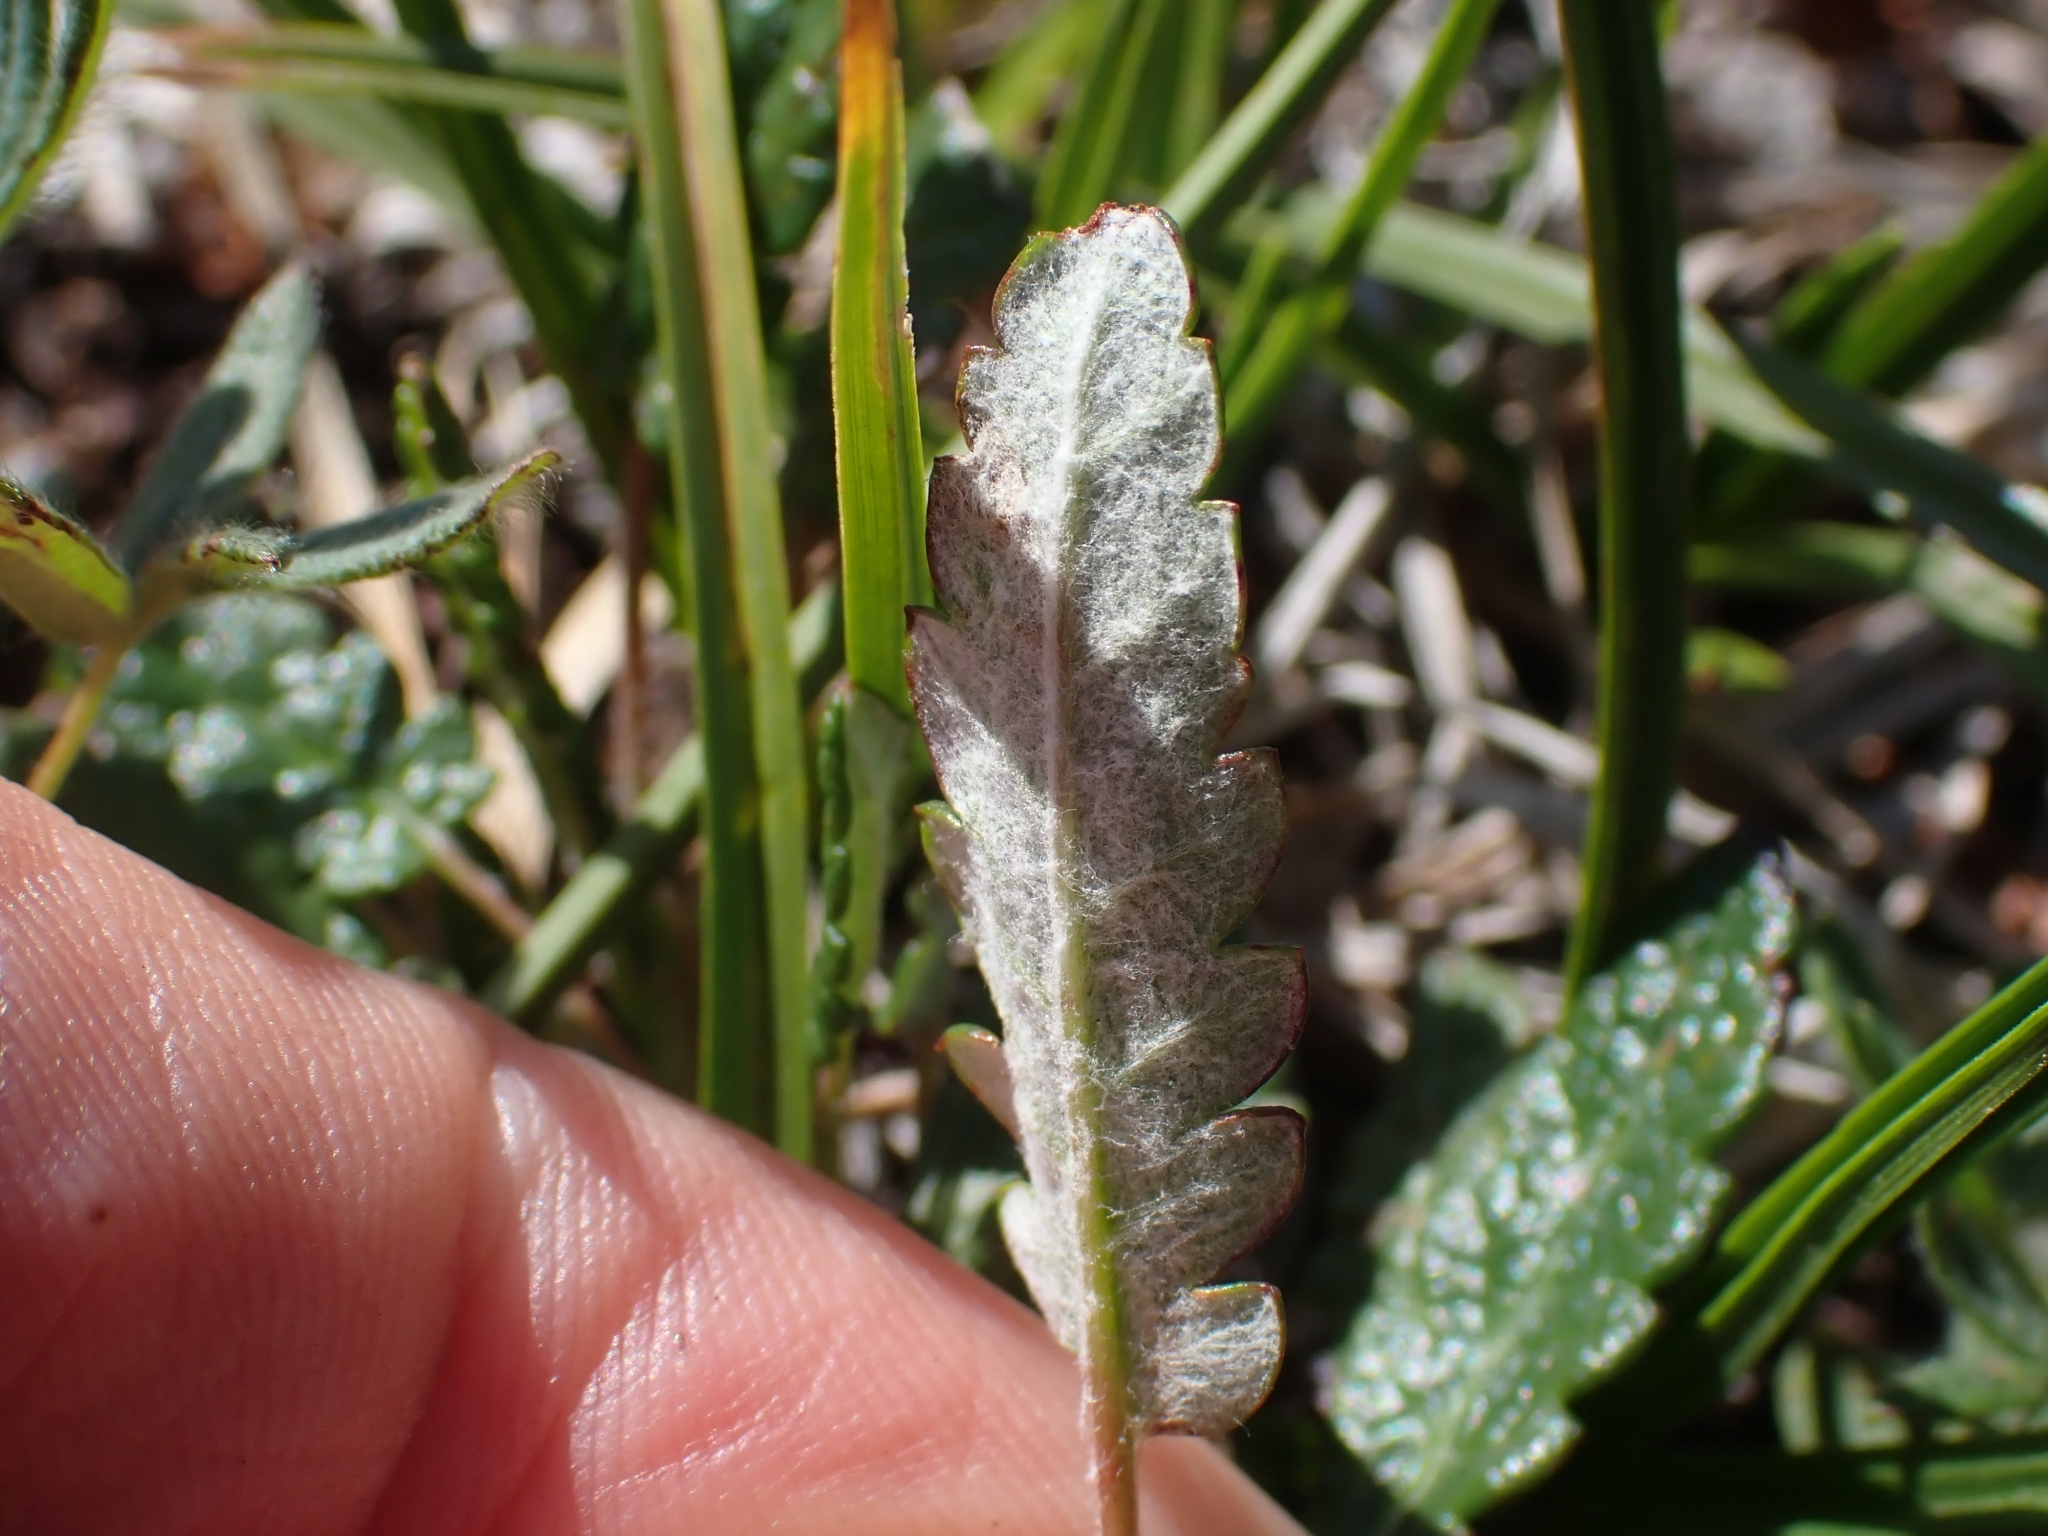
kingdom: Plantae
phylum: Tracheophyta
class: Magnoliopsida
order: Rosales
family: Rosaceae
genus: Dryas
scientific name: Dryas octopetala
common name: Eight-petal mountain-avens
